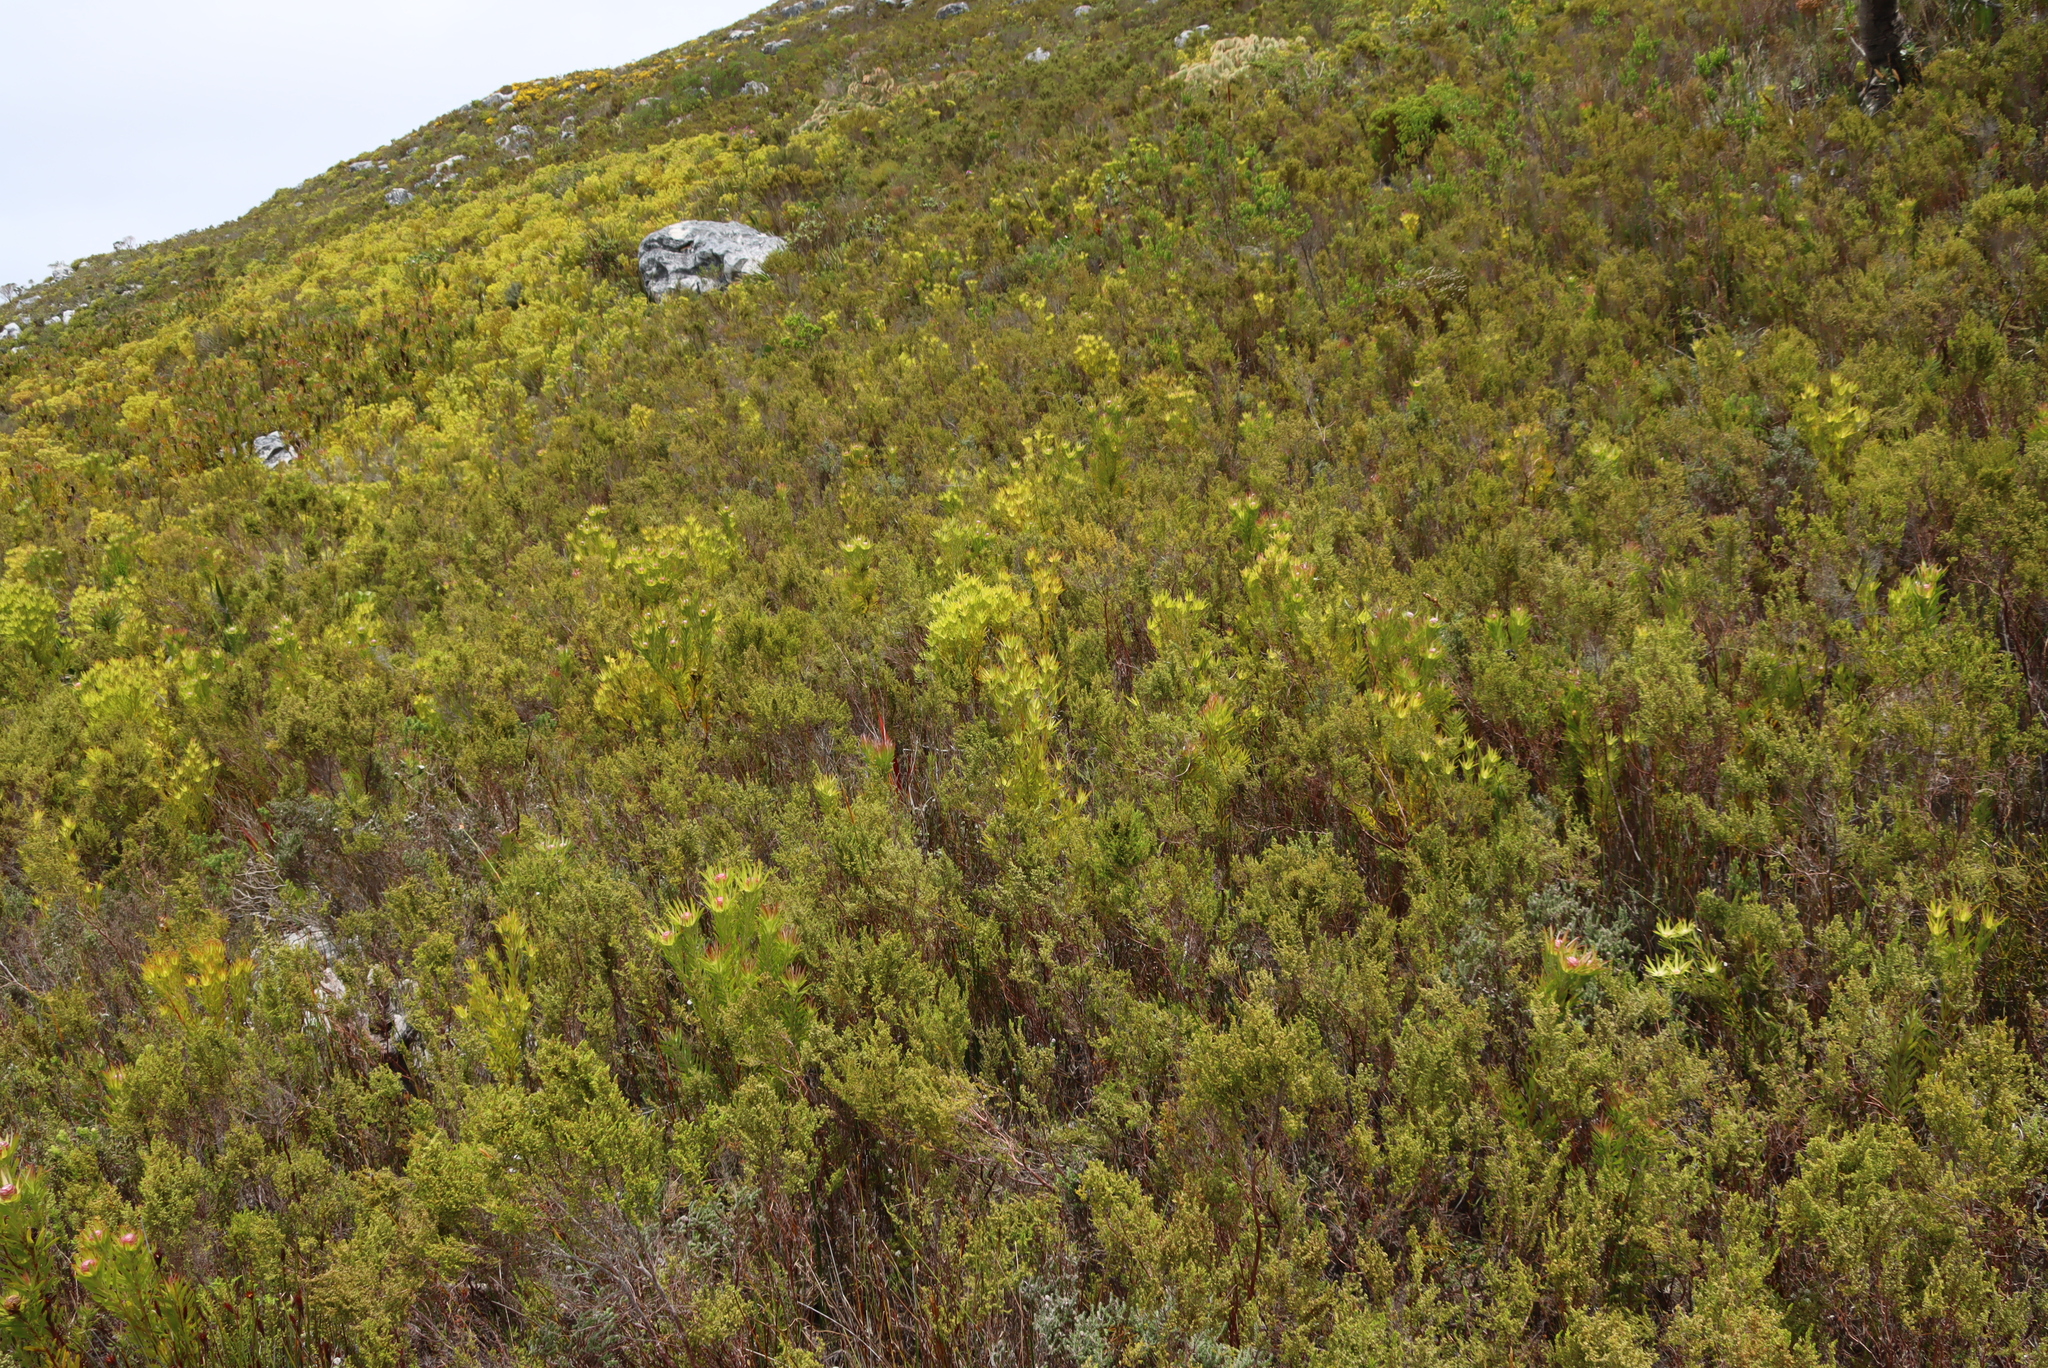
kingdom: Plantae
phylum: Tracheophyta
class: Magnoliopsida
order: Proteales
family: Proteaceae
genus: Leucadendron
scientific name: Leucadendron xanthoconus
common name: Sickle-leaf conebush
